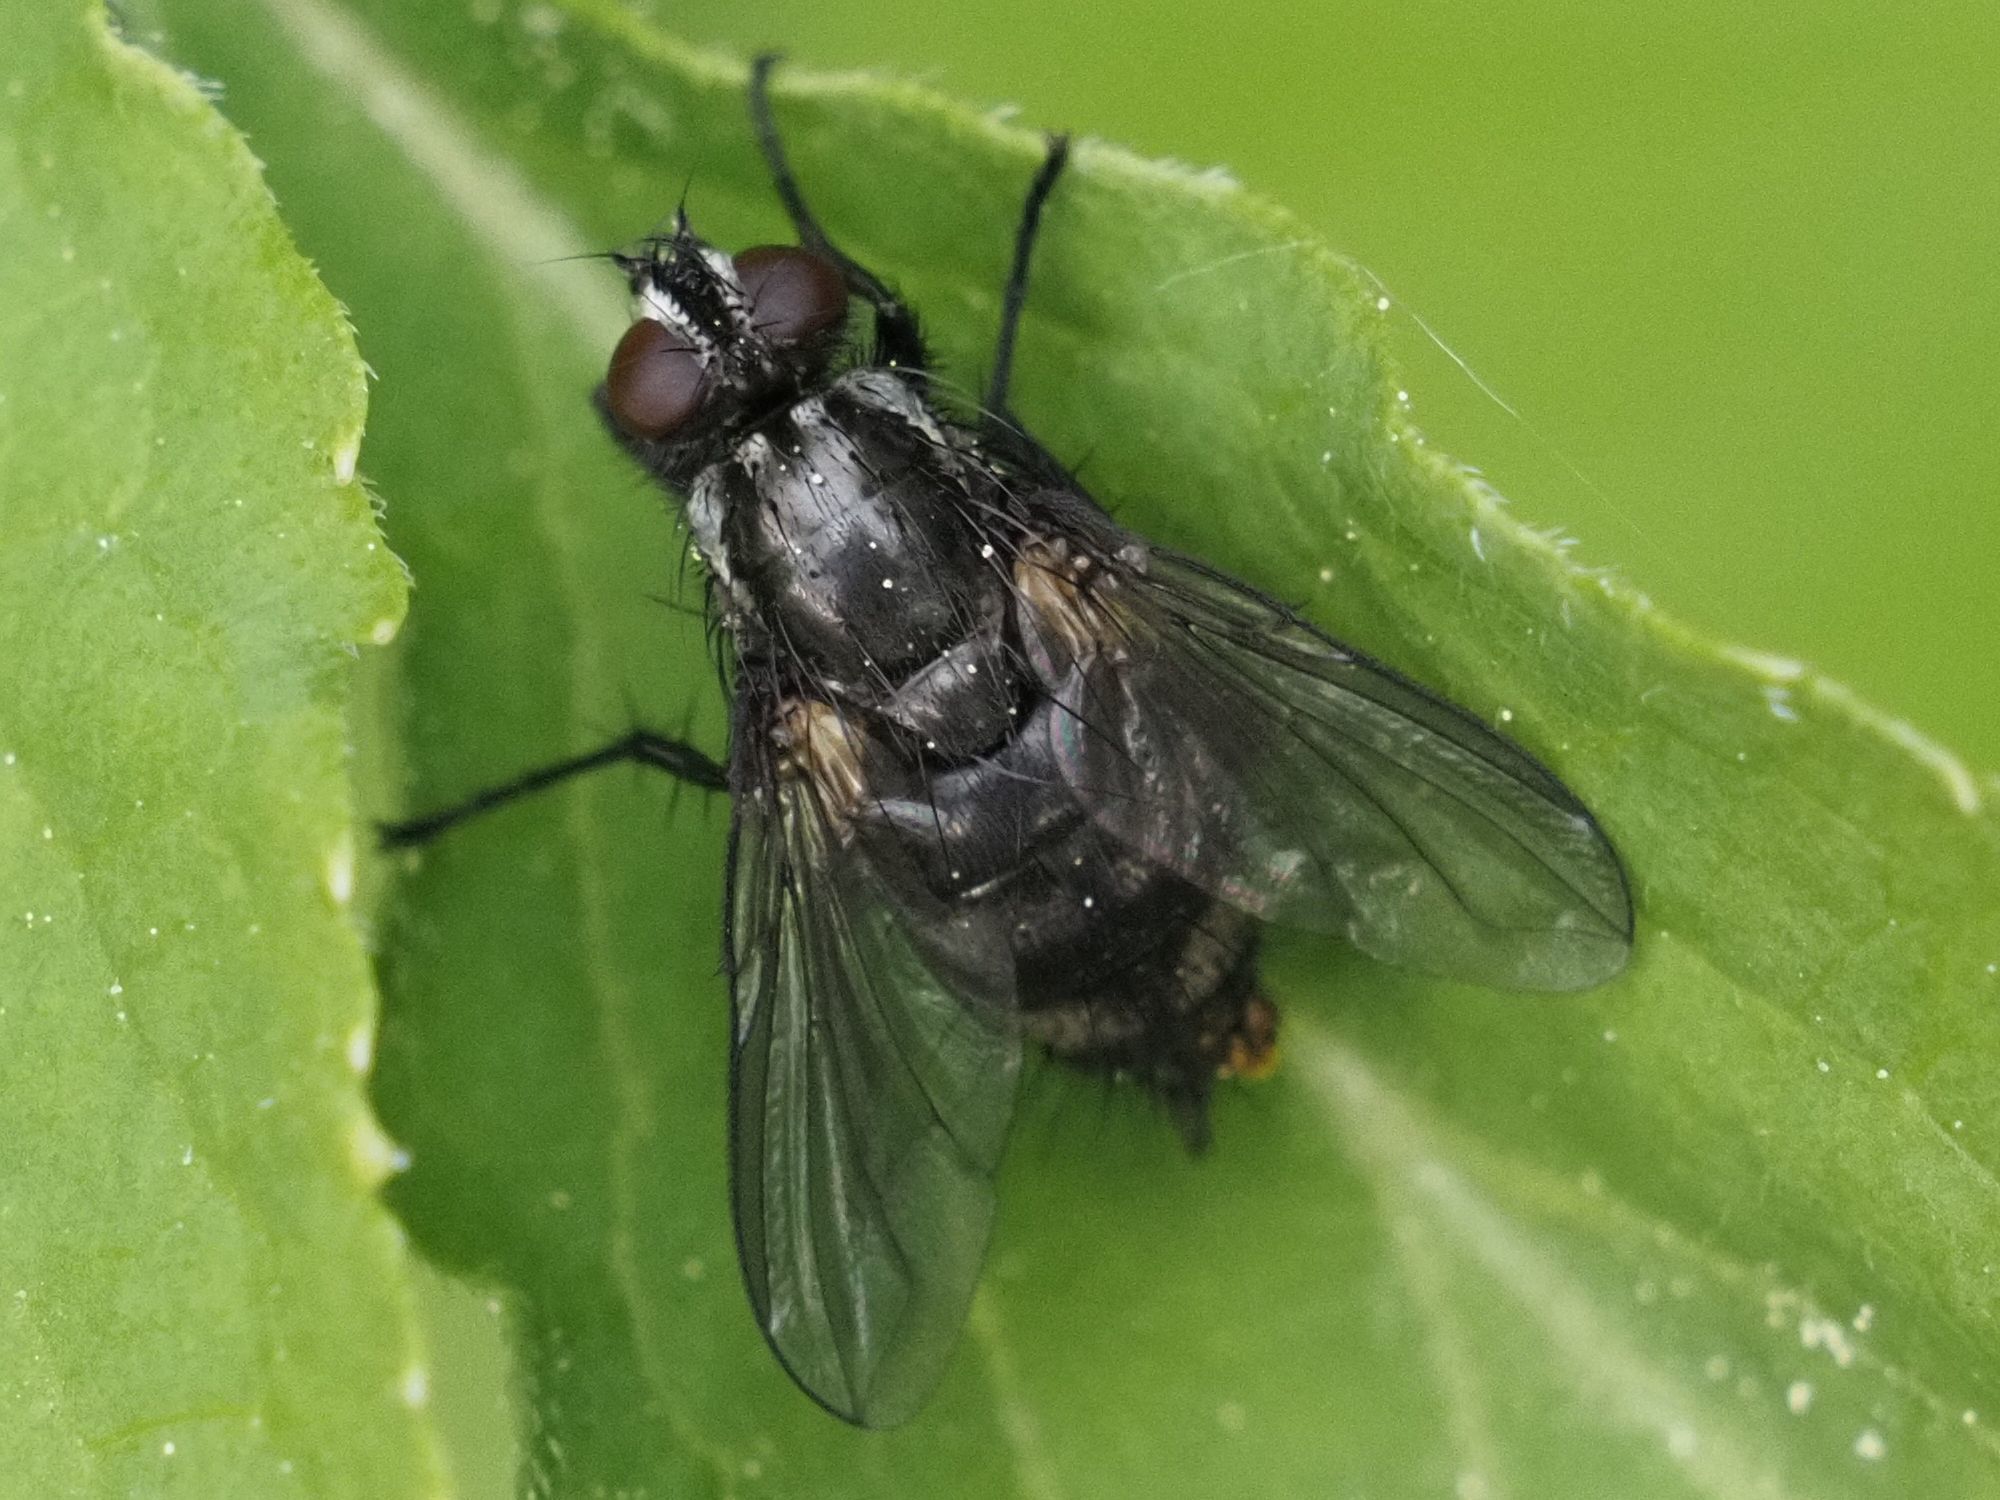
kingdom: Animalia
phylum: Arthropoda
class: Insecta
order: Diptera
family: Calliphoridae
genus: Rhinomorinia
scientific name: Rhinomorinia sarcophagina
